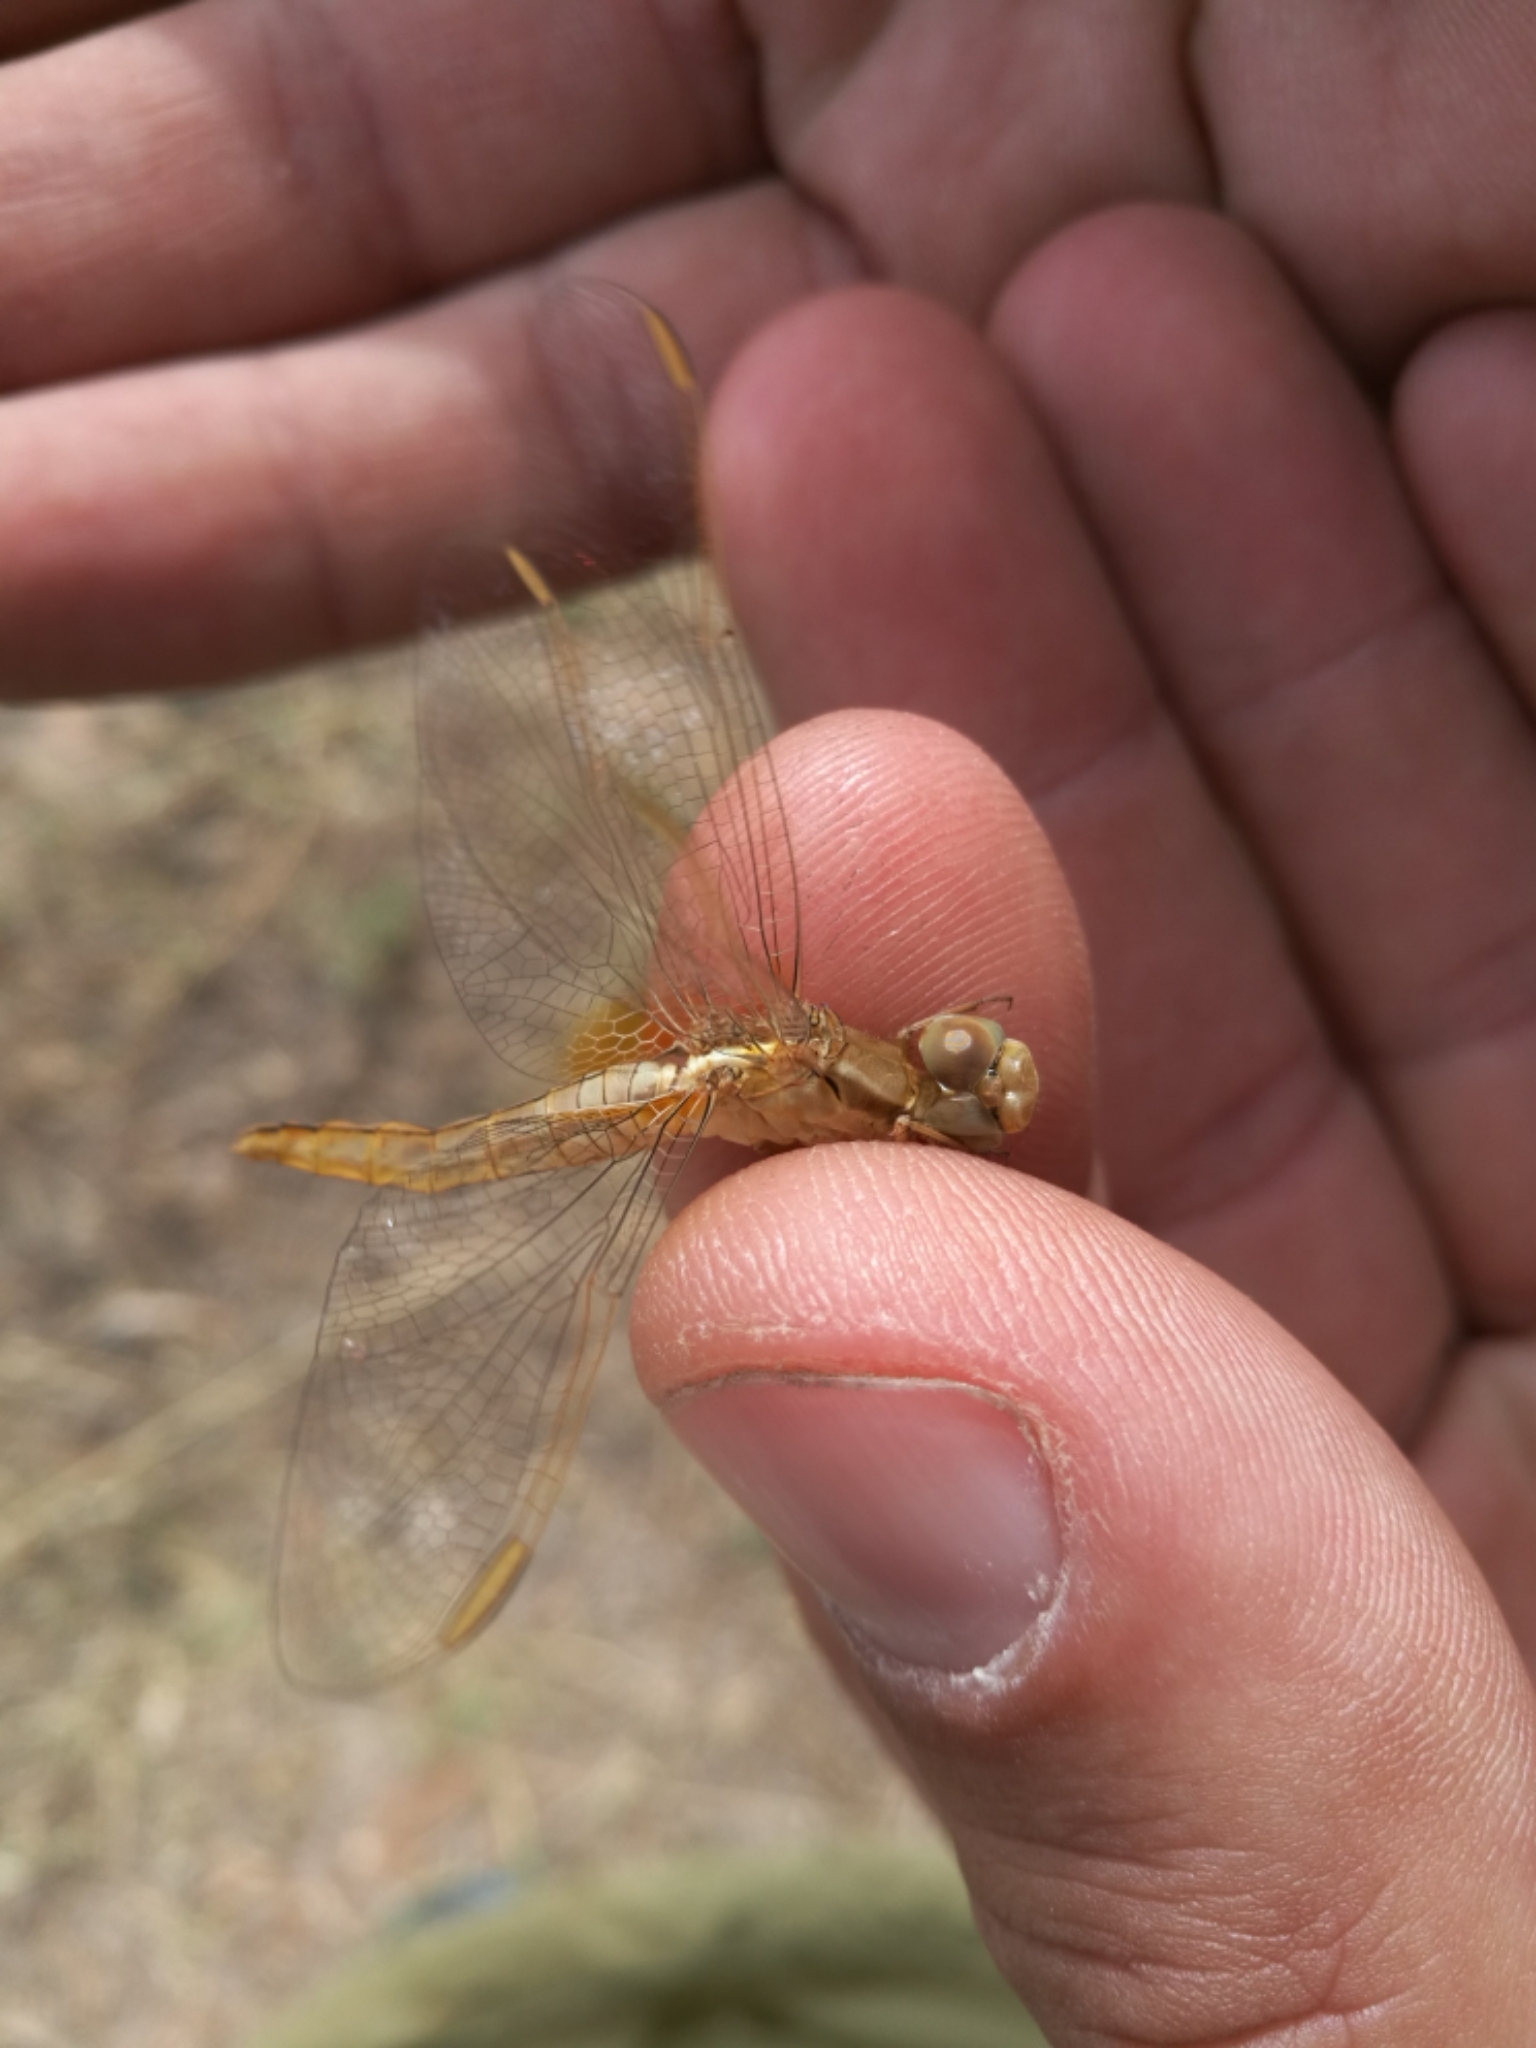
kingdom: Animalia
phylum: Arthropoda
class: Insecta
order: Odonata
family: Libellulidae
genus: Crocothemis
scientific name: Crocothemis erythraea
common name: Scarlet dragonfly
